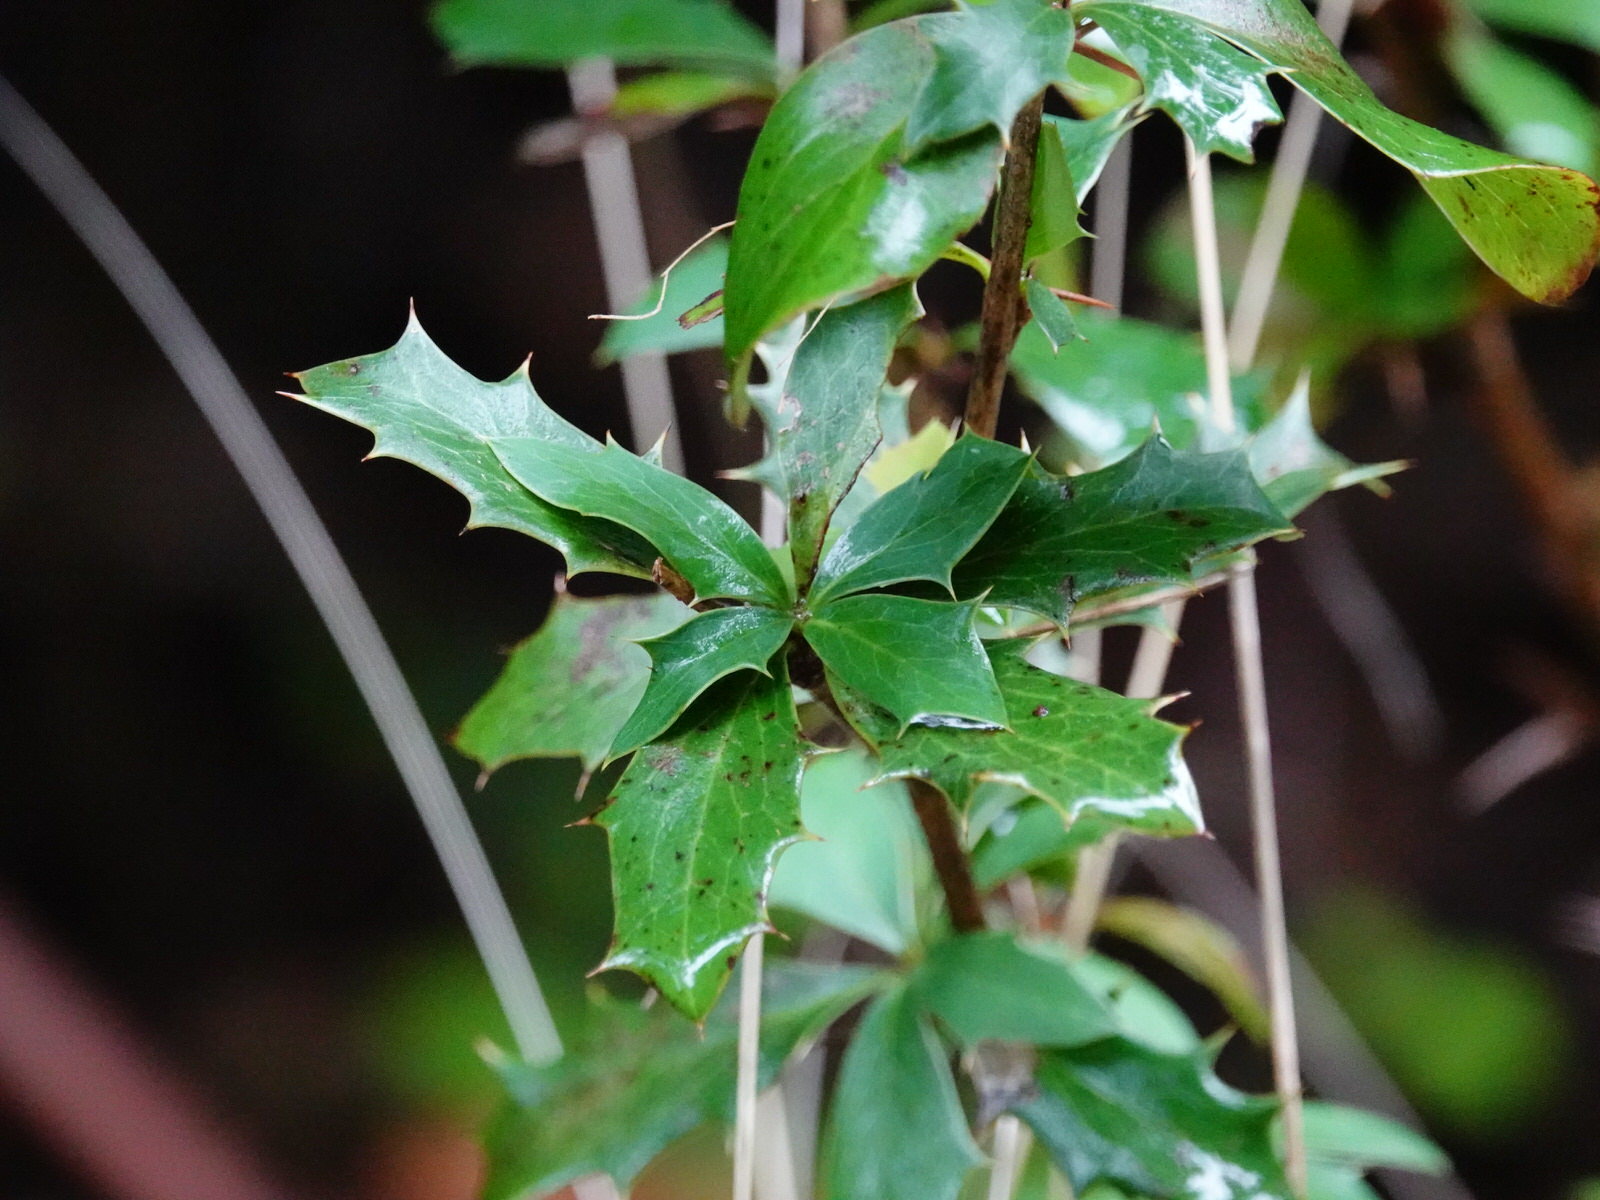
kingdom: Plantae
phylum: Tracheophyta
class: Magnoliopsida
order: Ranunculales
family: Berberidaceae
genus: Berberis
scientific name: Berberis glaucocarpa
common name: Great barberry
